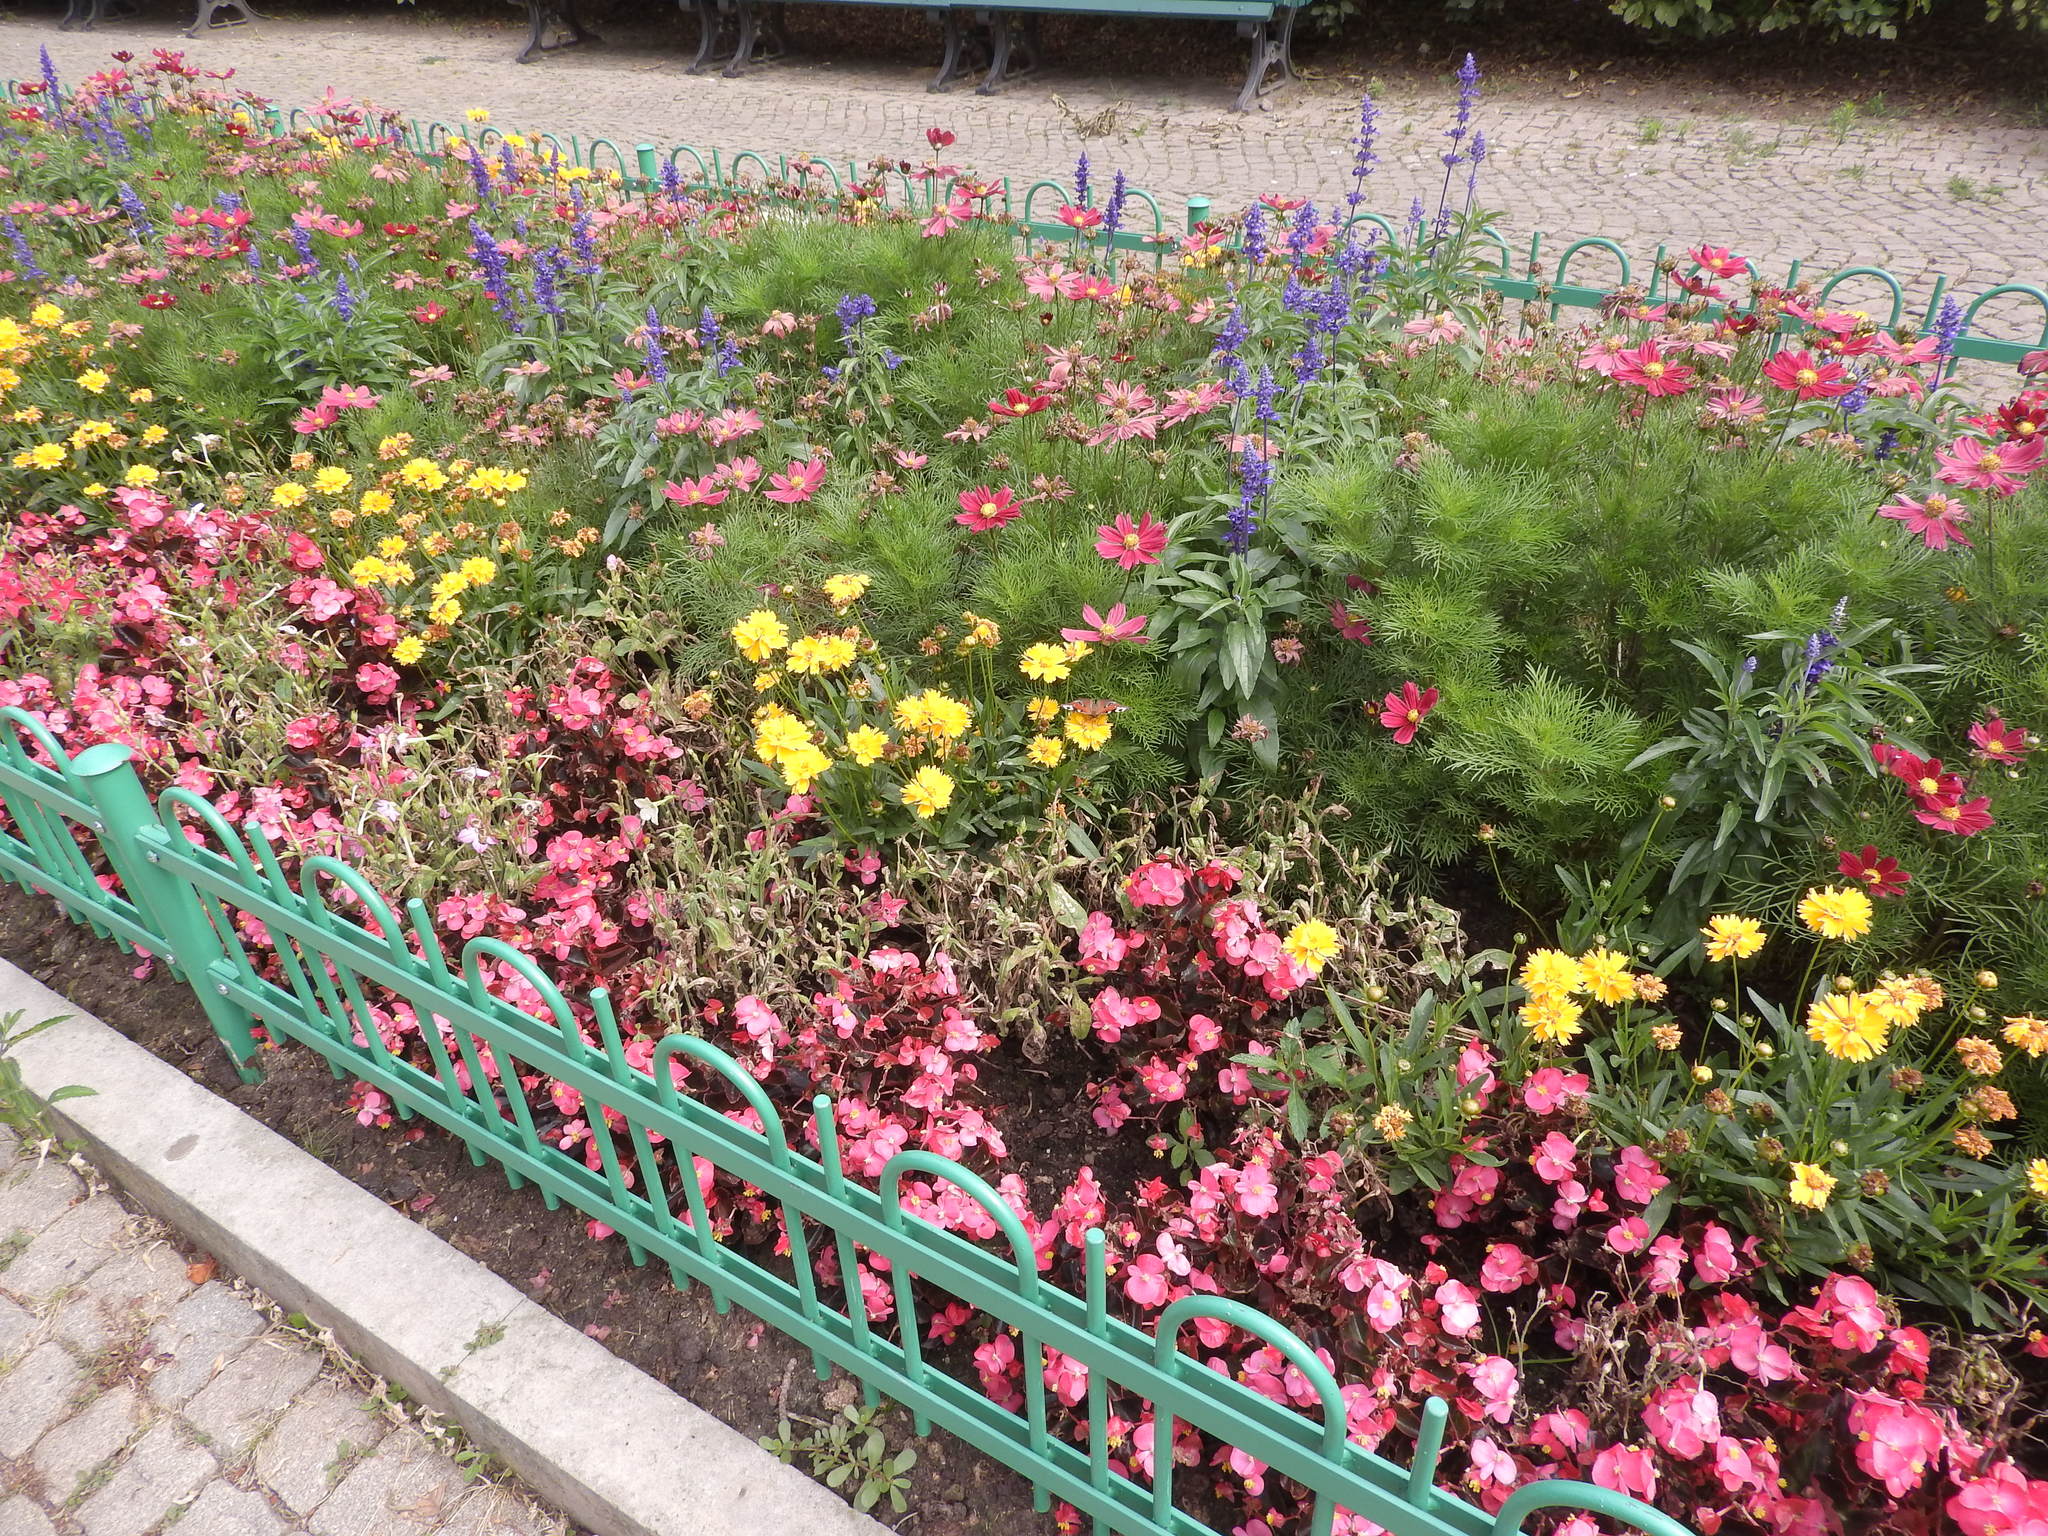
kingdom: Animalia
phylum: Arthropoda
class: Insecta
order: Lepidoptera
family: Nymphalidae
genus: Aglais
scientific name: Aglais io
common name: Peacock
